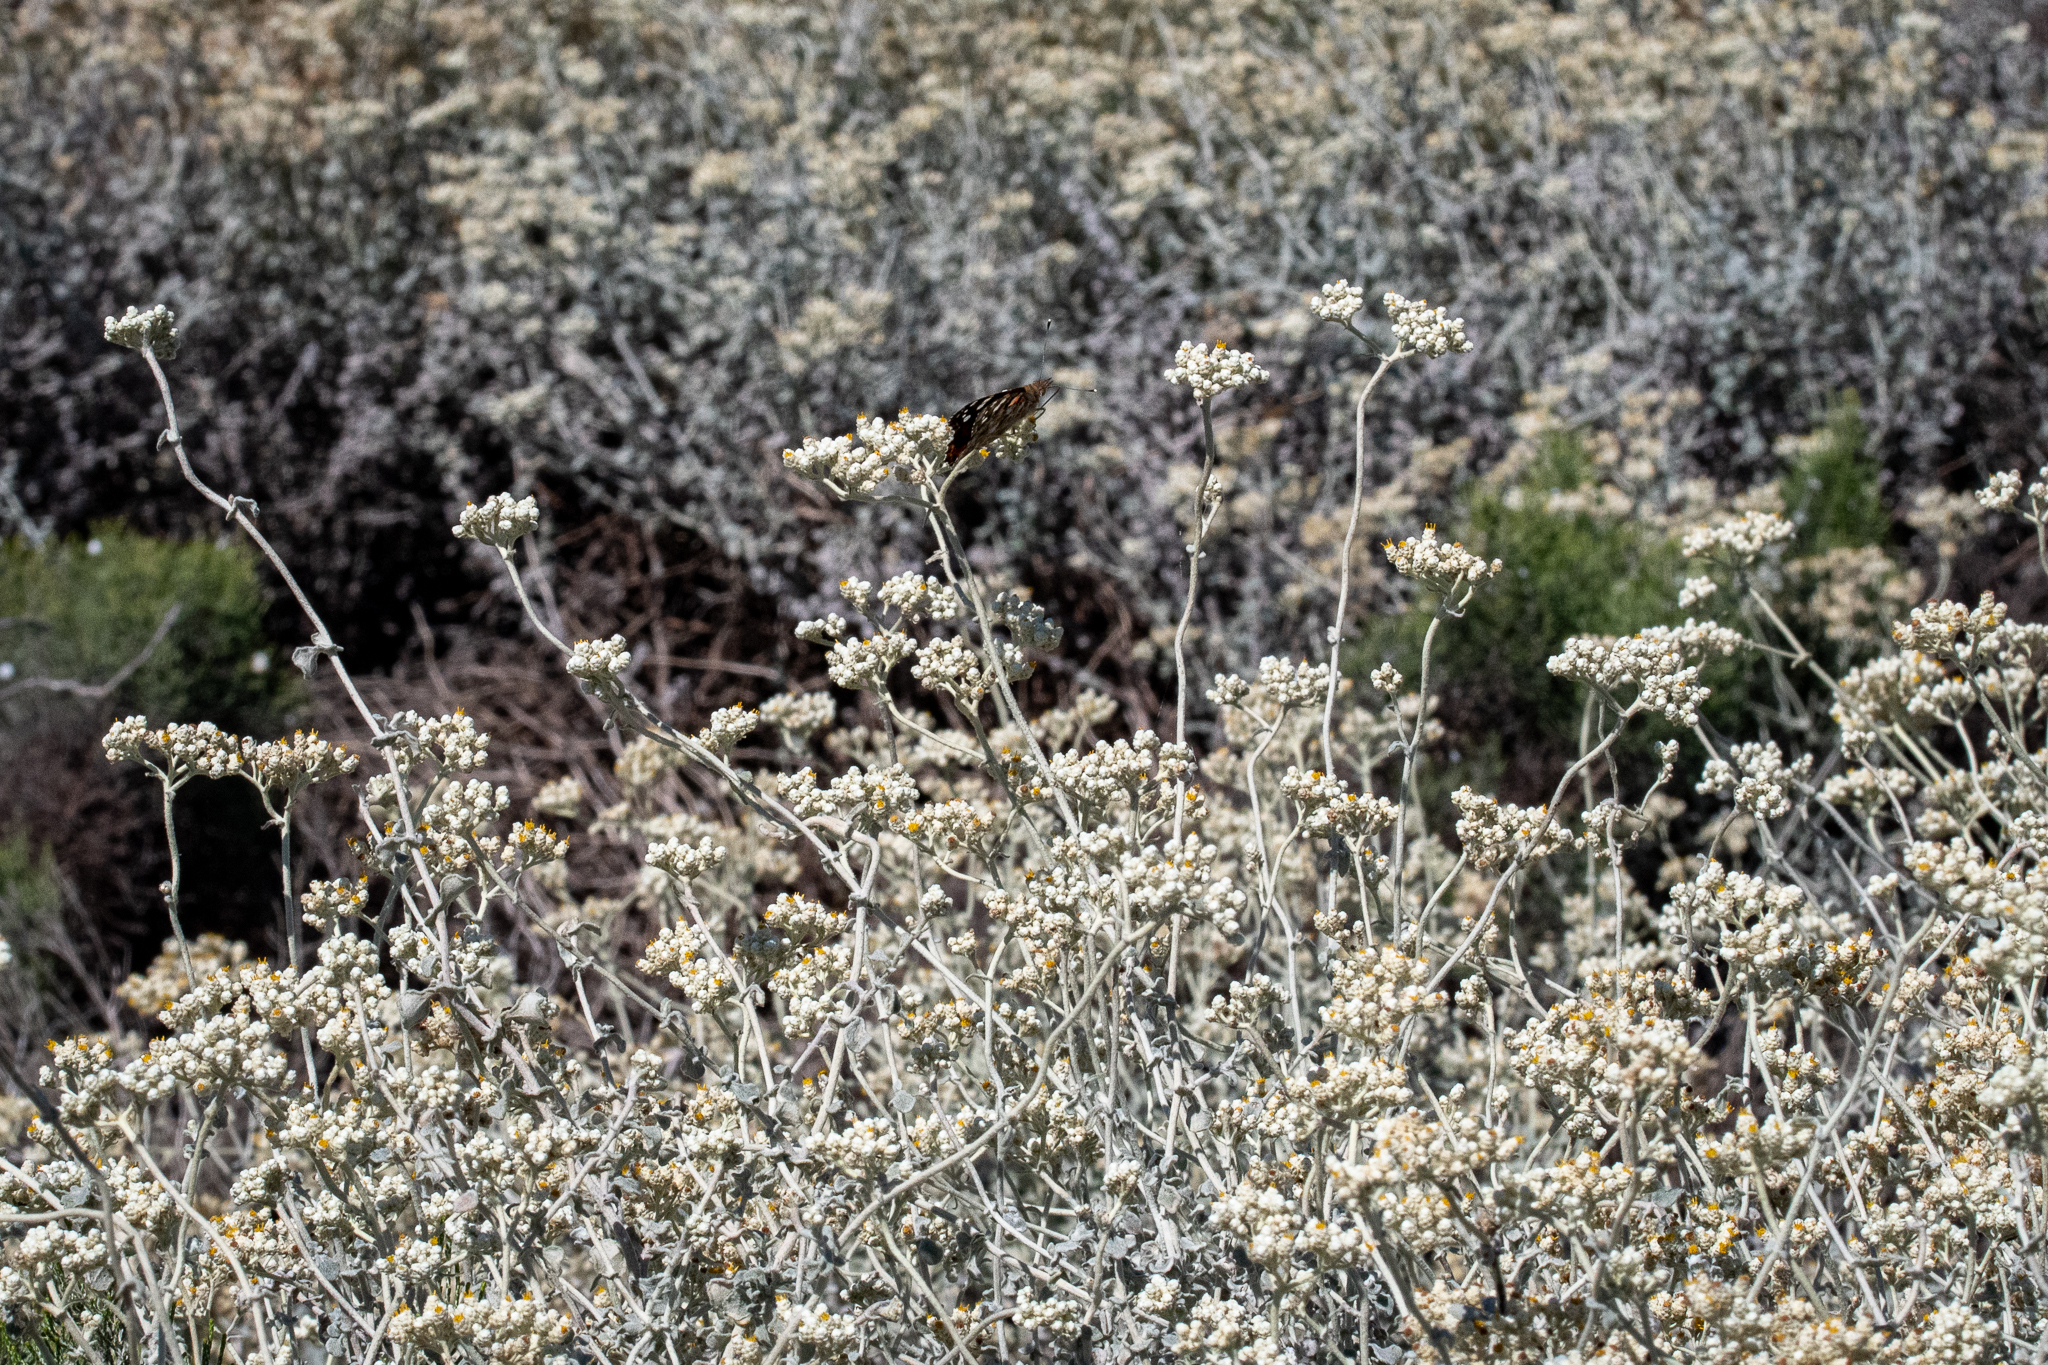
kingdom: Plantae
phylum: Tracheophyta
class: Magnoliopsida
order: Asterales
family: Asteraceae
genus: Helichrysum
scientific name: Helichrysum patulum
